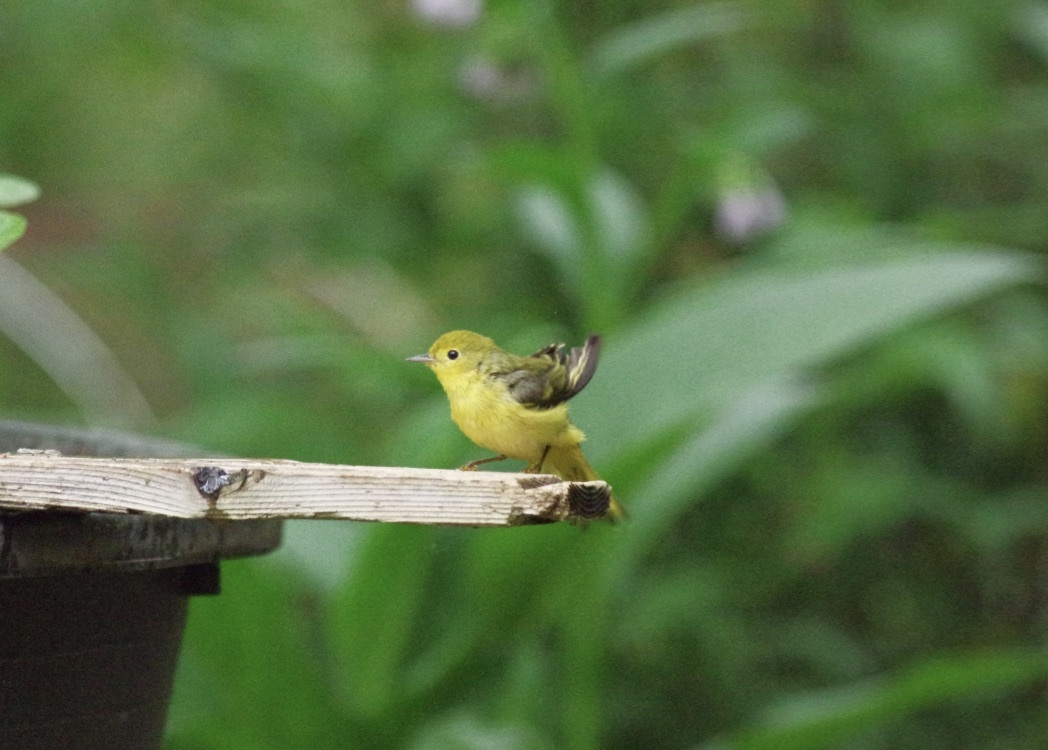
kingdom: Animalia
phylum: Chordata
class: Aves
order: Passeriformes
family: Parulidae
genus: Setophaga
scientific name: Setophaga petechia
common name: Yellow warbler
